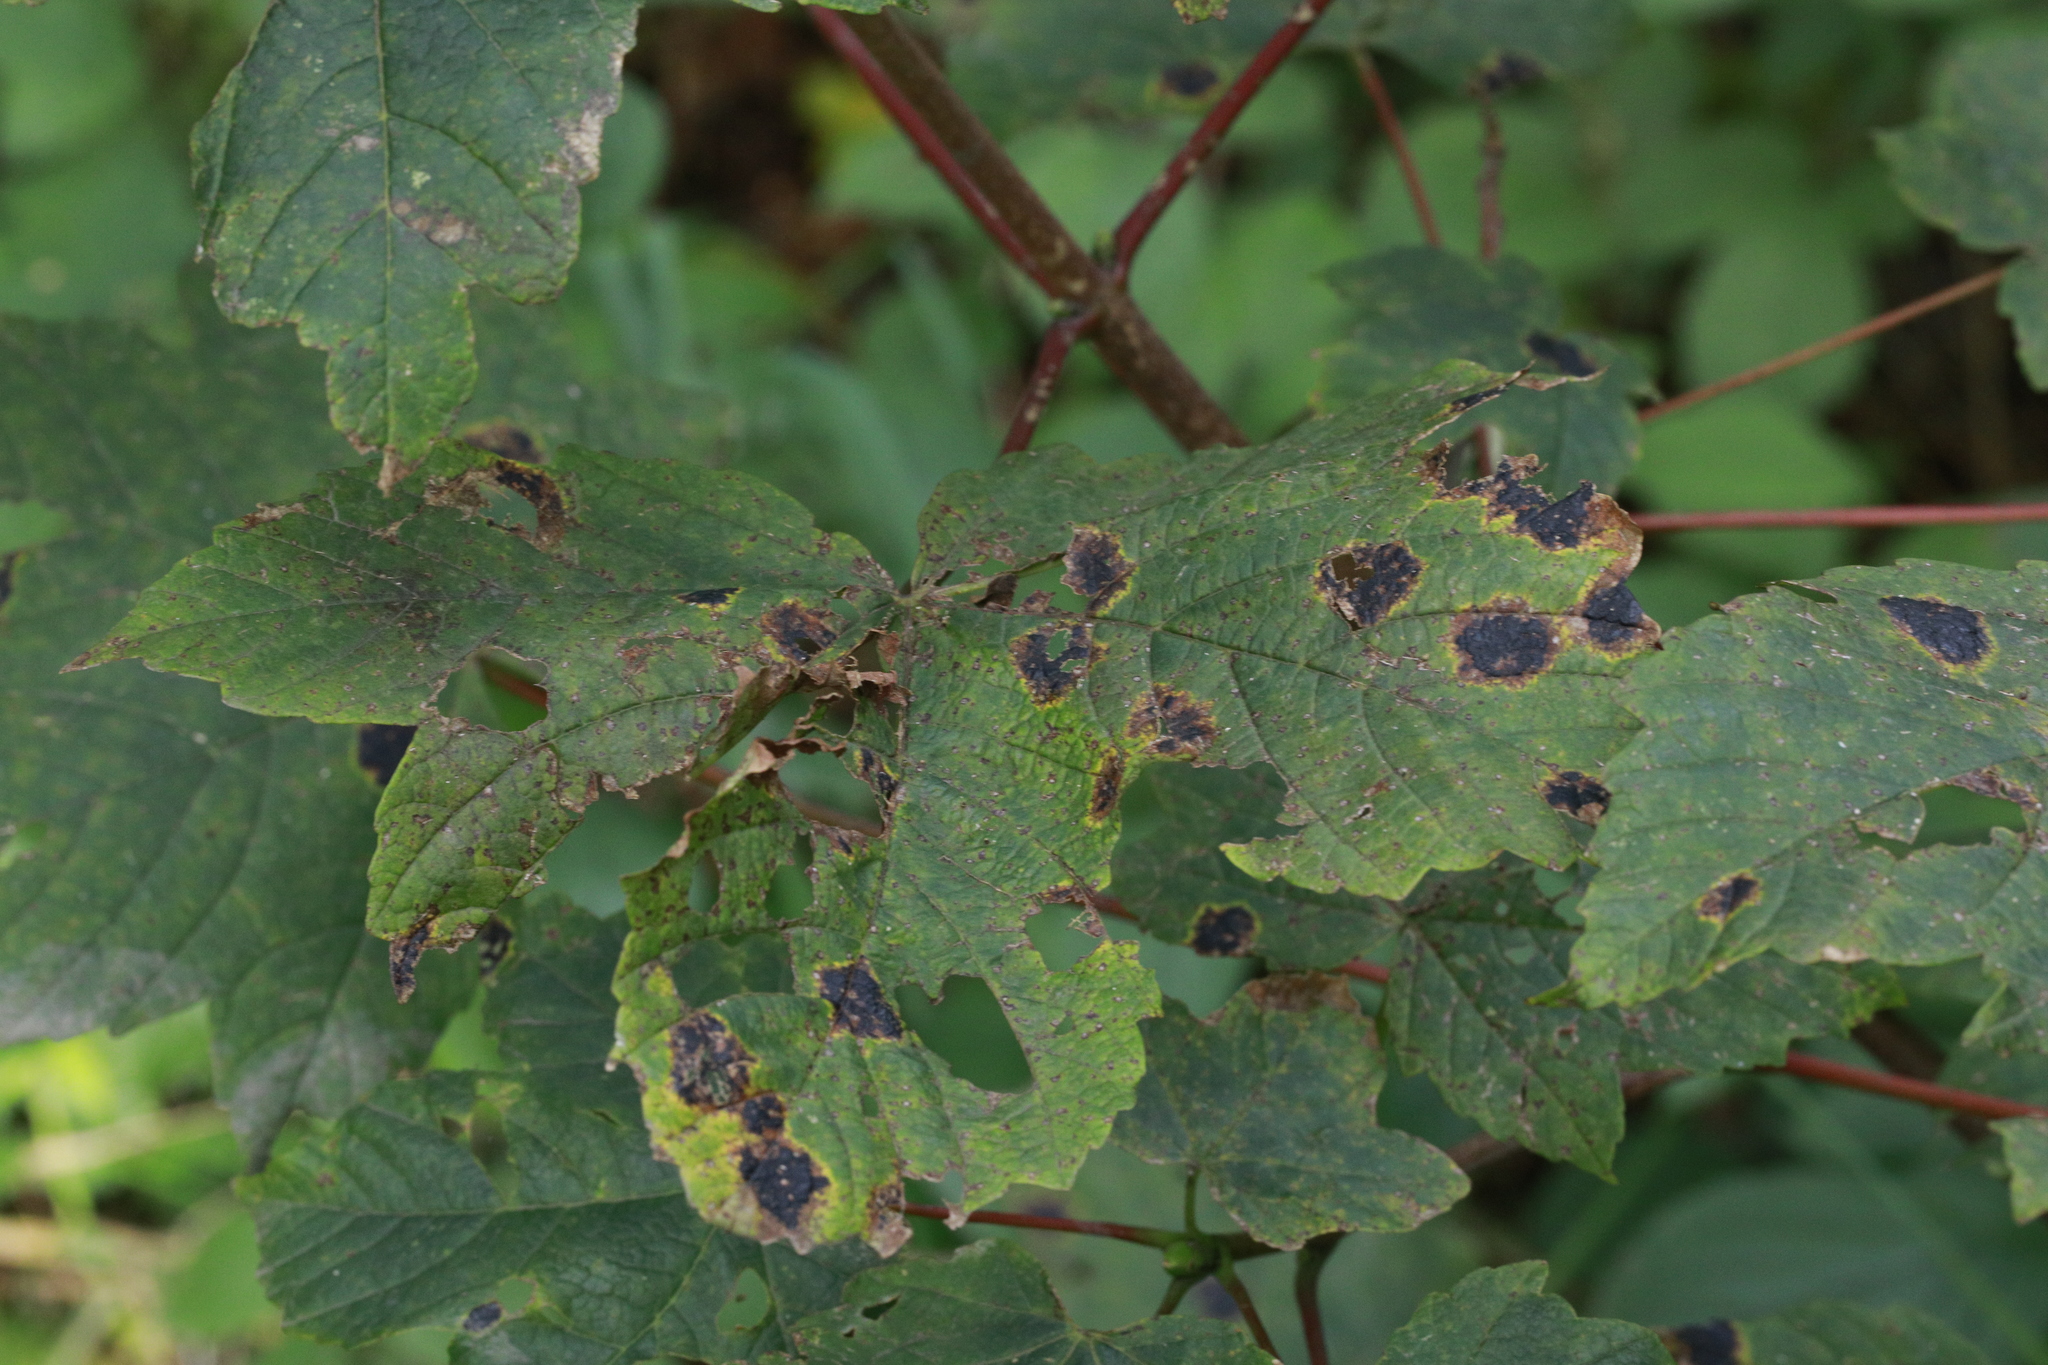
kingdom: Fungi
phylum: Ascomycota
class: Leotiomycetes
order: Rhytismatales
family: Rhytismataceae
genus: Rhytisma
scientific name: Rhytisma acerinum
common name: European tar spot
